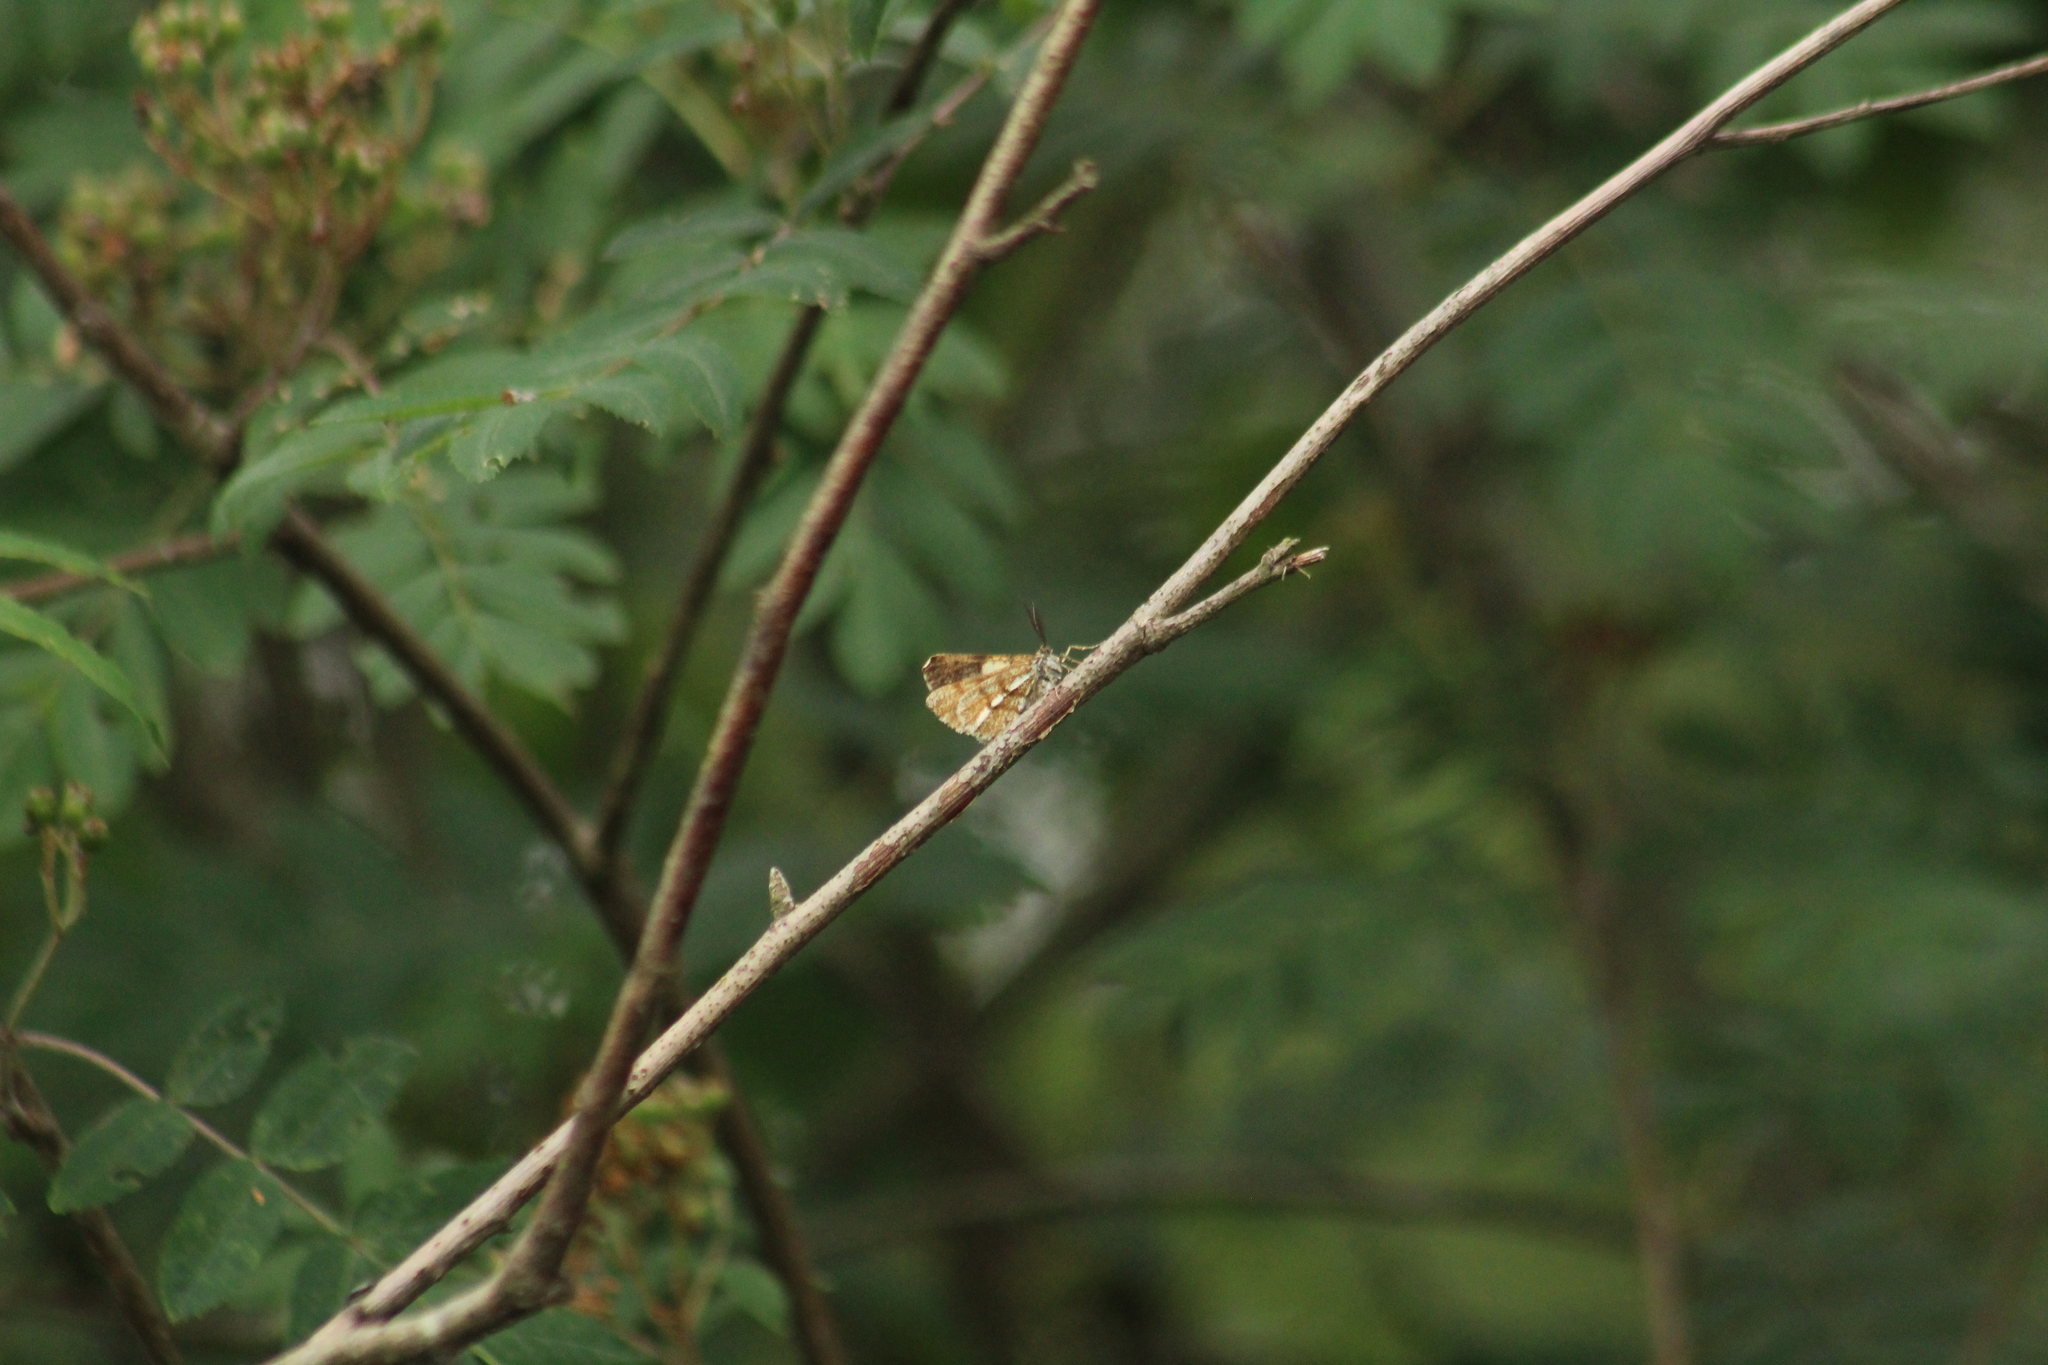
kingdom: Animalia
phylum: Arthropoda
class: Insecta
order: Lepidoptera
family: Geometridae
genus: Bupalus
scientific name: Bupalus piniaria
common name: Bordered white
